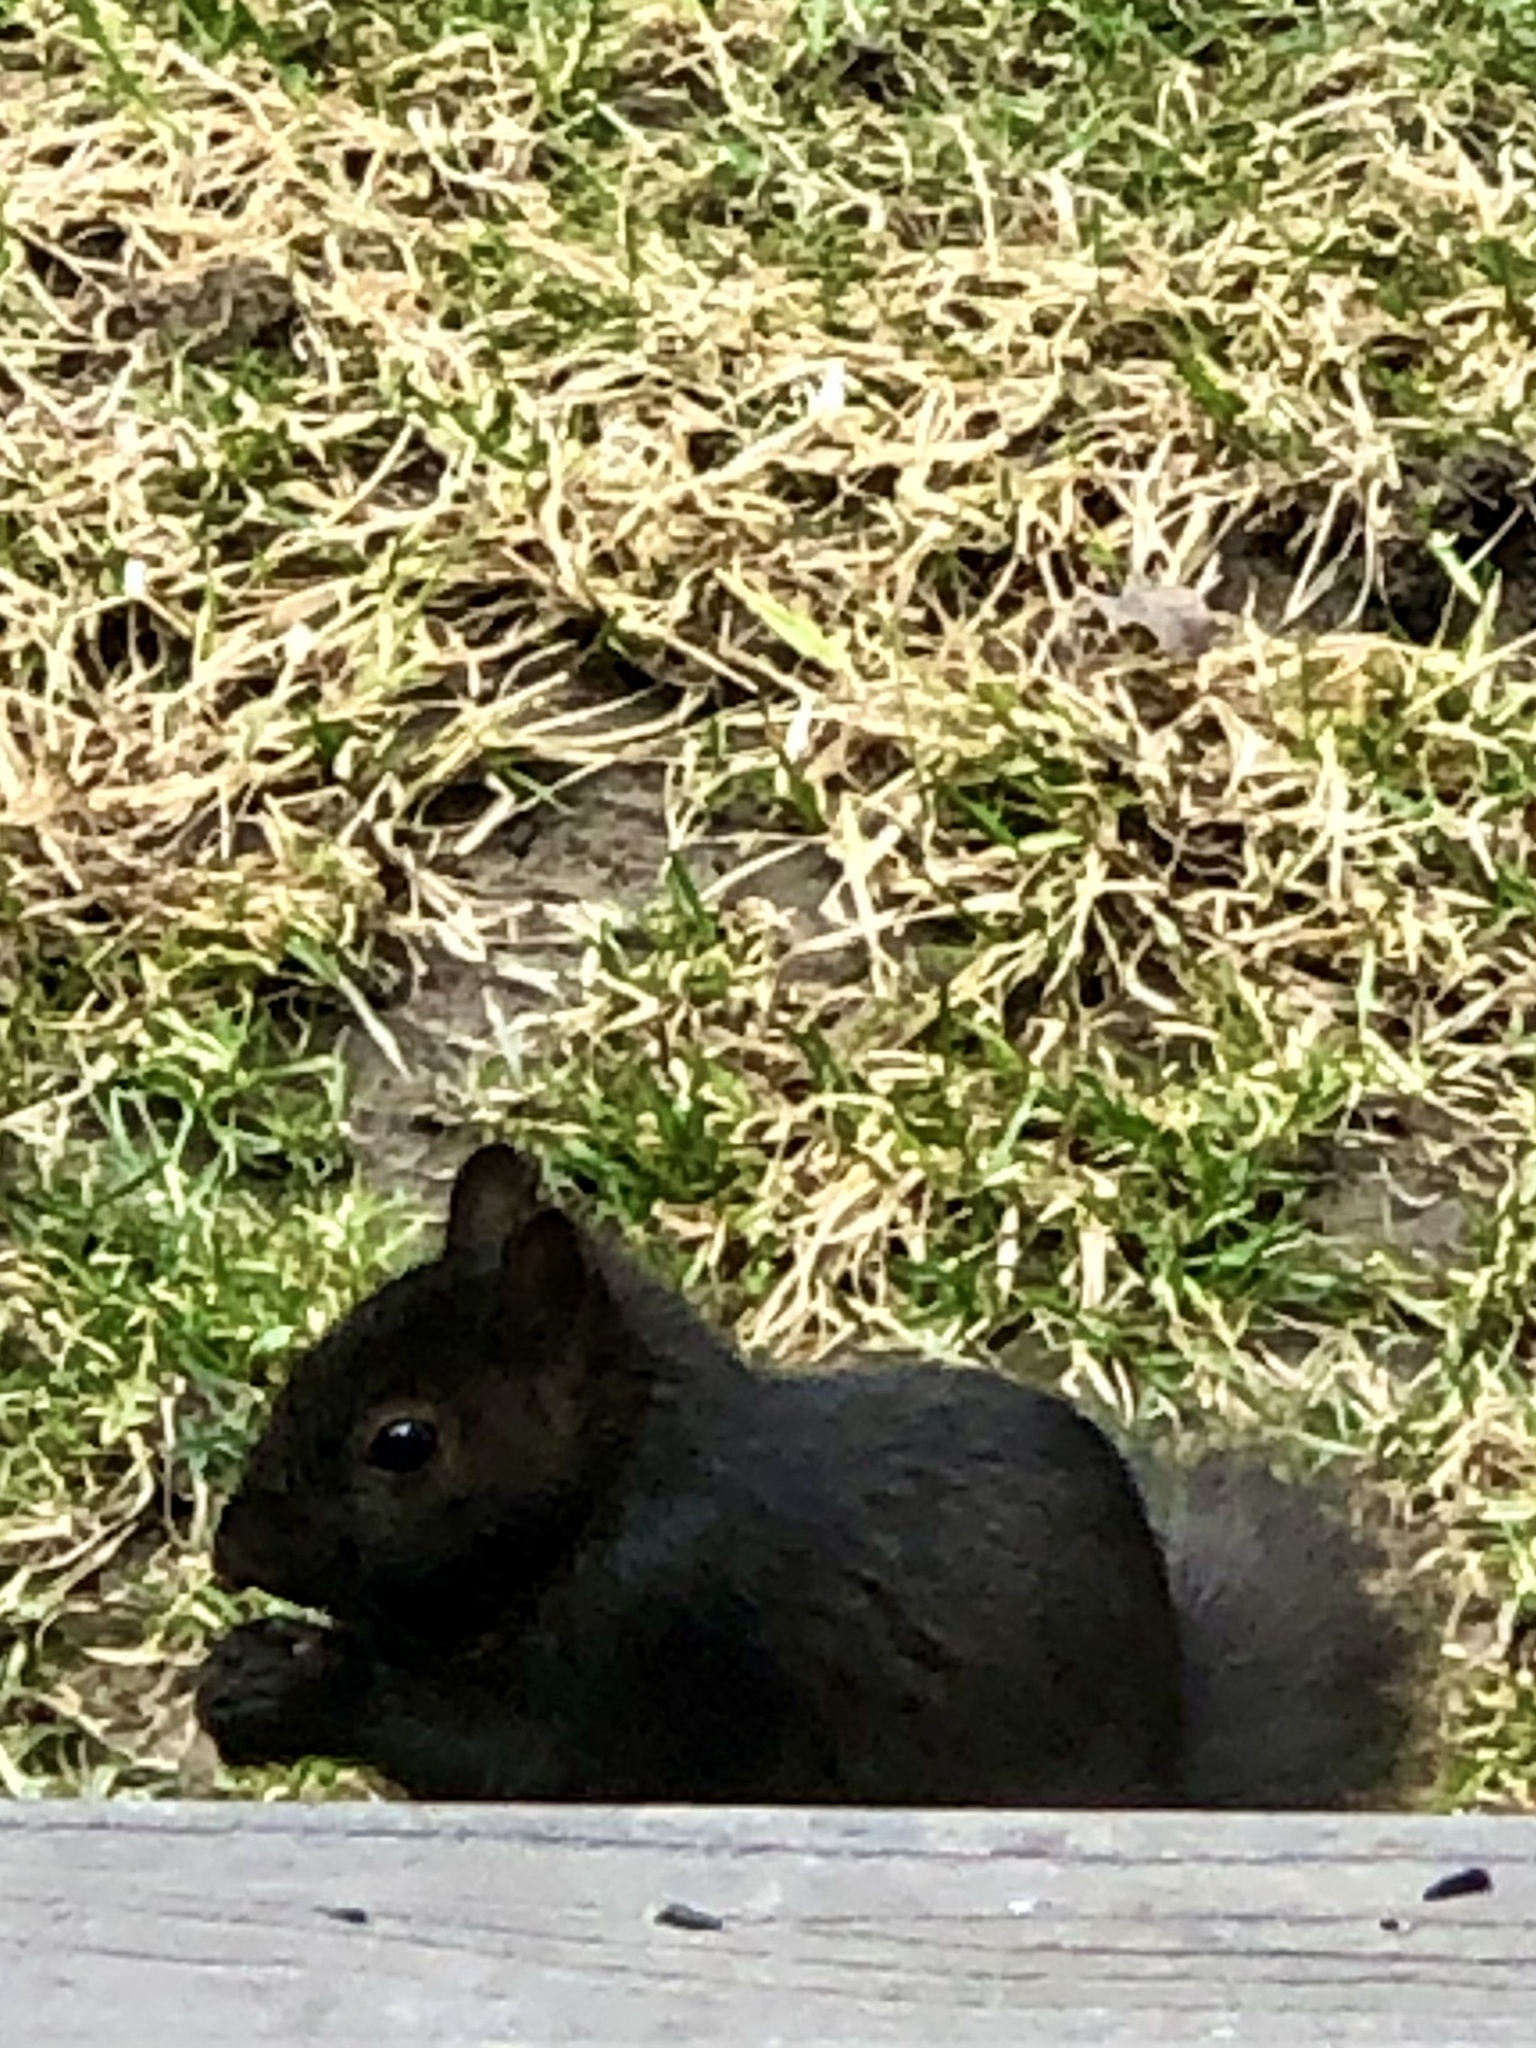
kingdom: Animalia
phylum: Chordata
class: Mammalia
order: Rodentia
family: Sciuridae
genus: Sciurus
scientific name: Sciurus carolinensis
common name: Eastern gray squirrel
